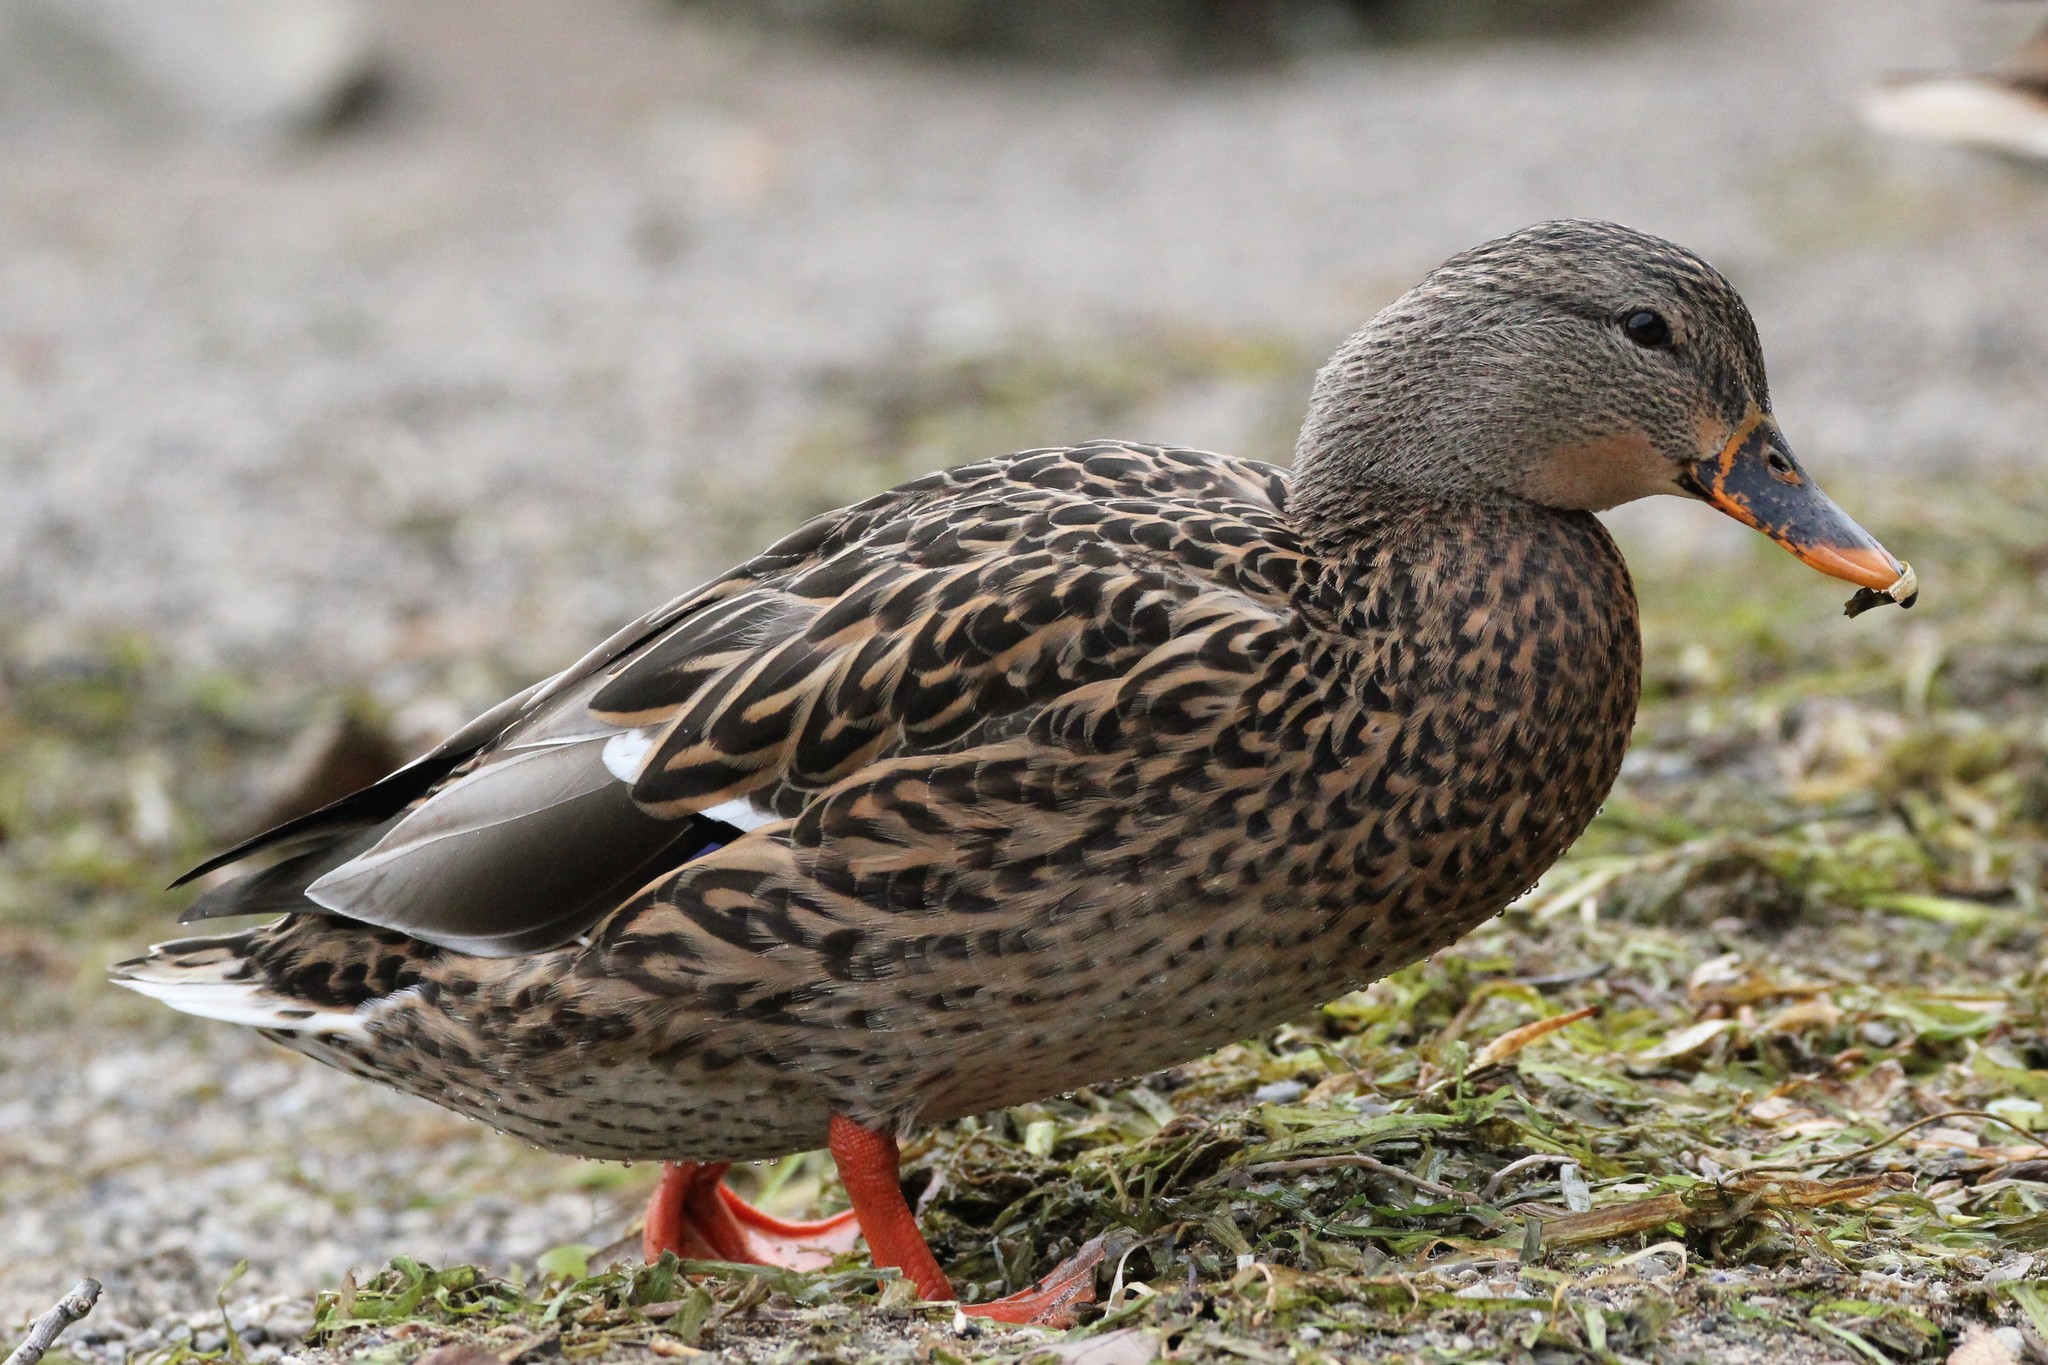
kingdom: Animalia
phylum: Chordata
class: Aves
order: Anseriformes
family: Anatidae
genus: Anas
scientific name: Anas platyrhynchos
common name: Mallard
